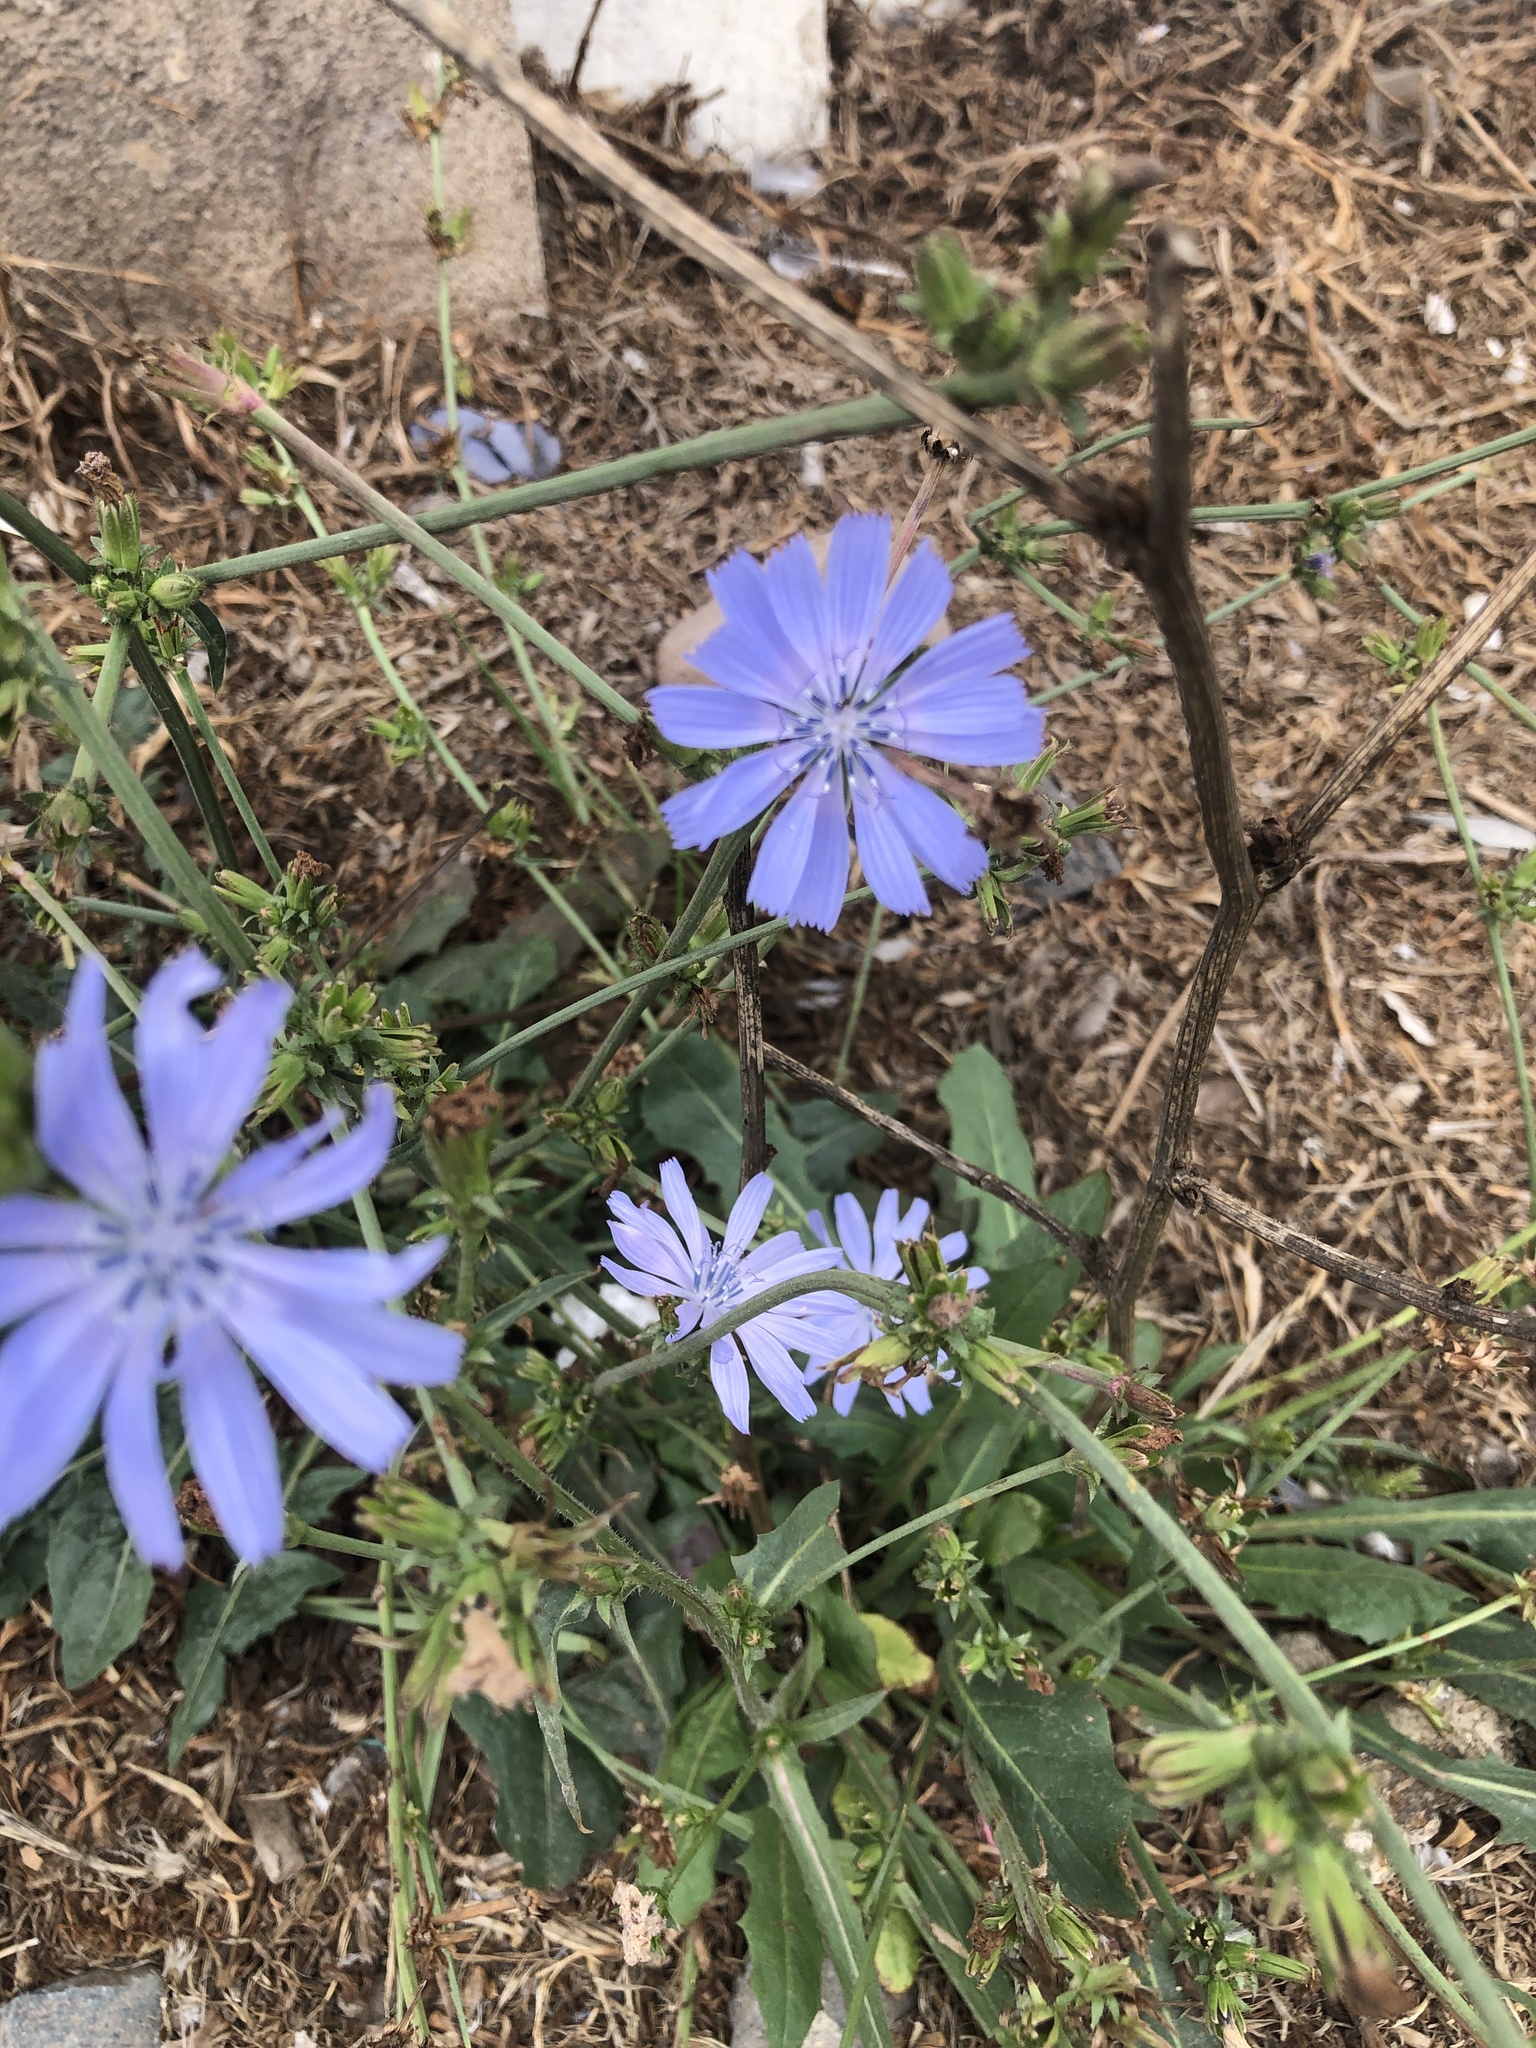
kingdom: Plantae
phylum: Tracheophyta
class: Magnoliopsida
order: Asterales
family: Asteraceae
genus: Cichorium
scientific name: Cichorium intybus
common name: Chicory
